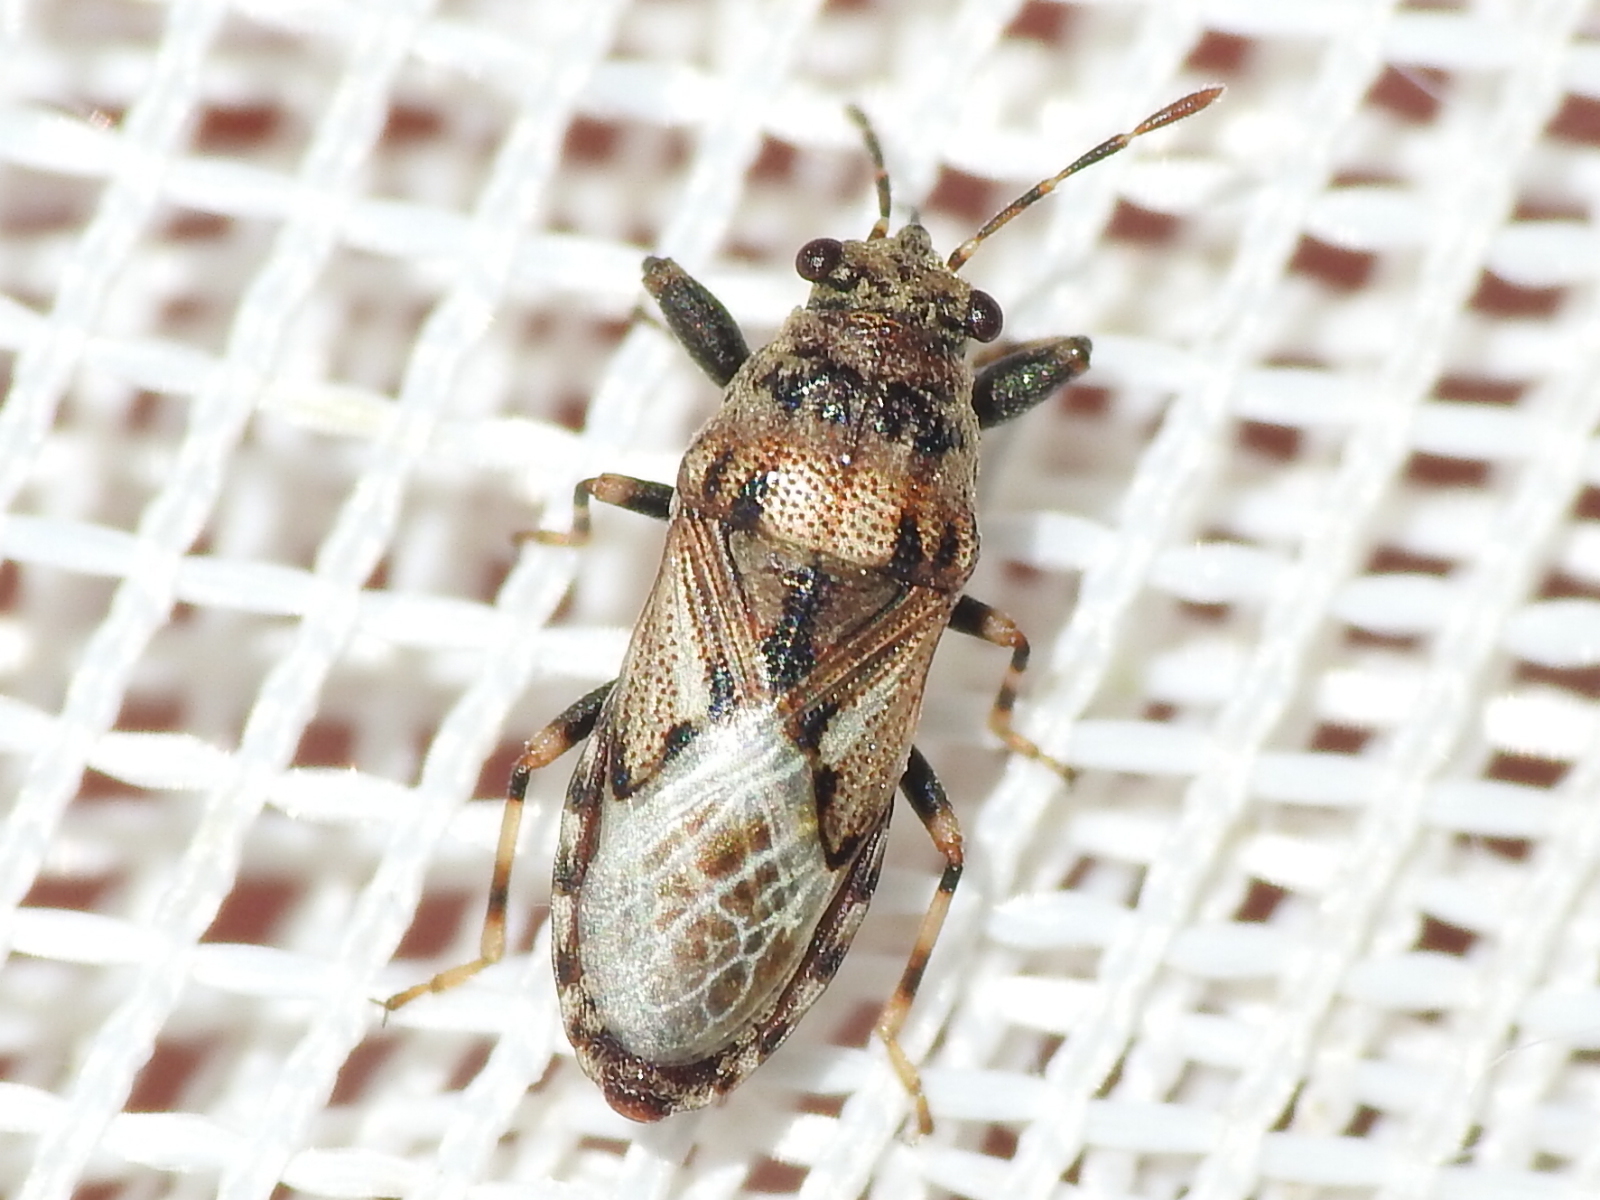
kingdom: Animalia
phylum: Arthropoda
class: Insecta
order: Hemiptera
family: Pachygronthidae
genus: Phlegyas
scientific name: Phlegyas abbreviatus
